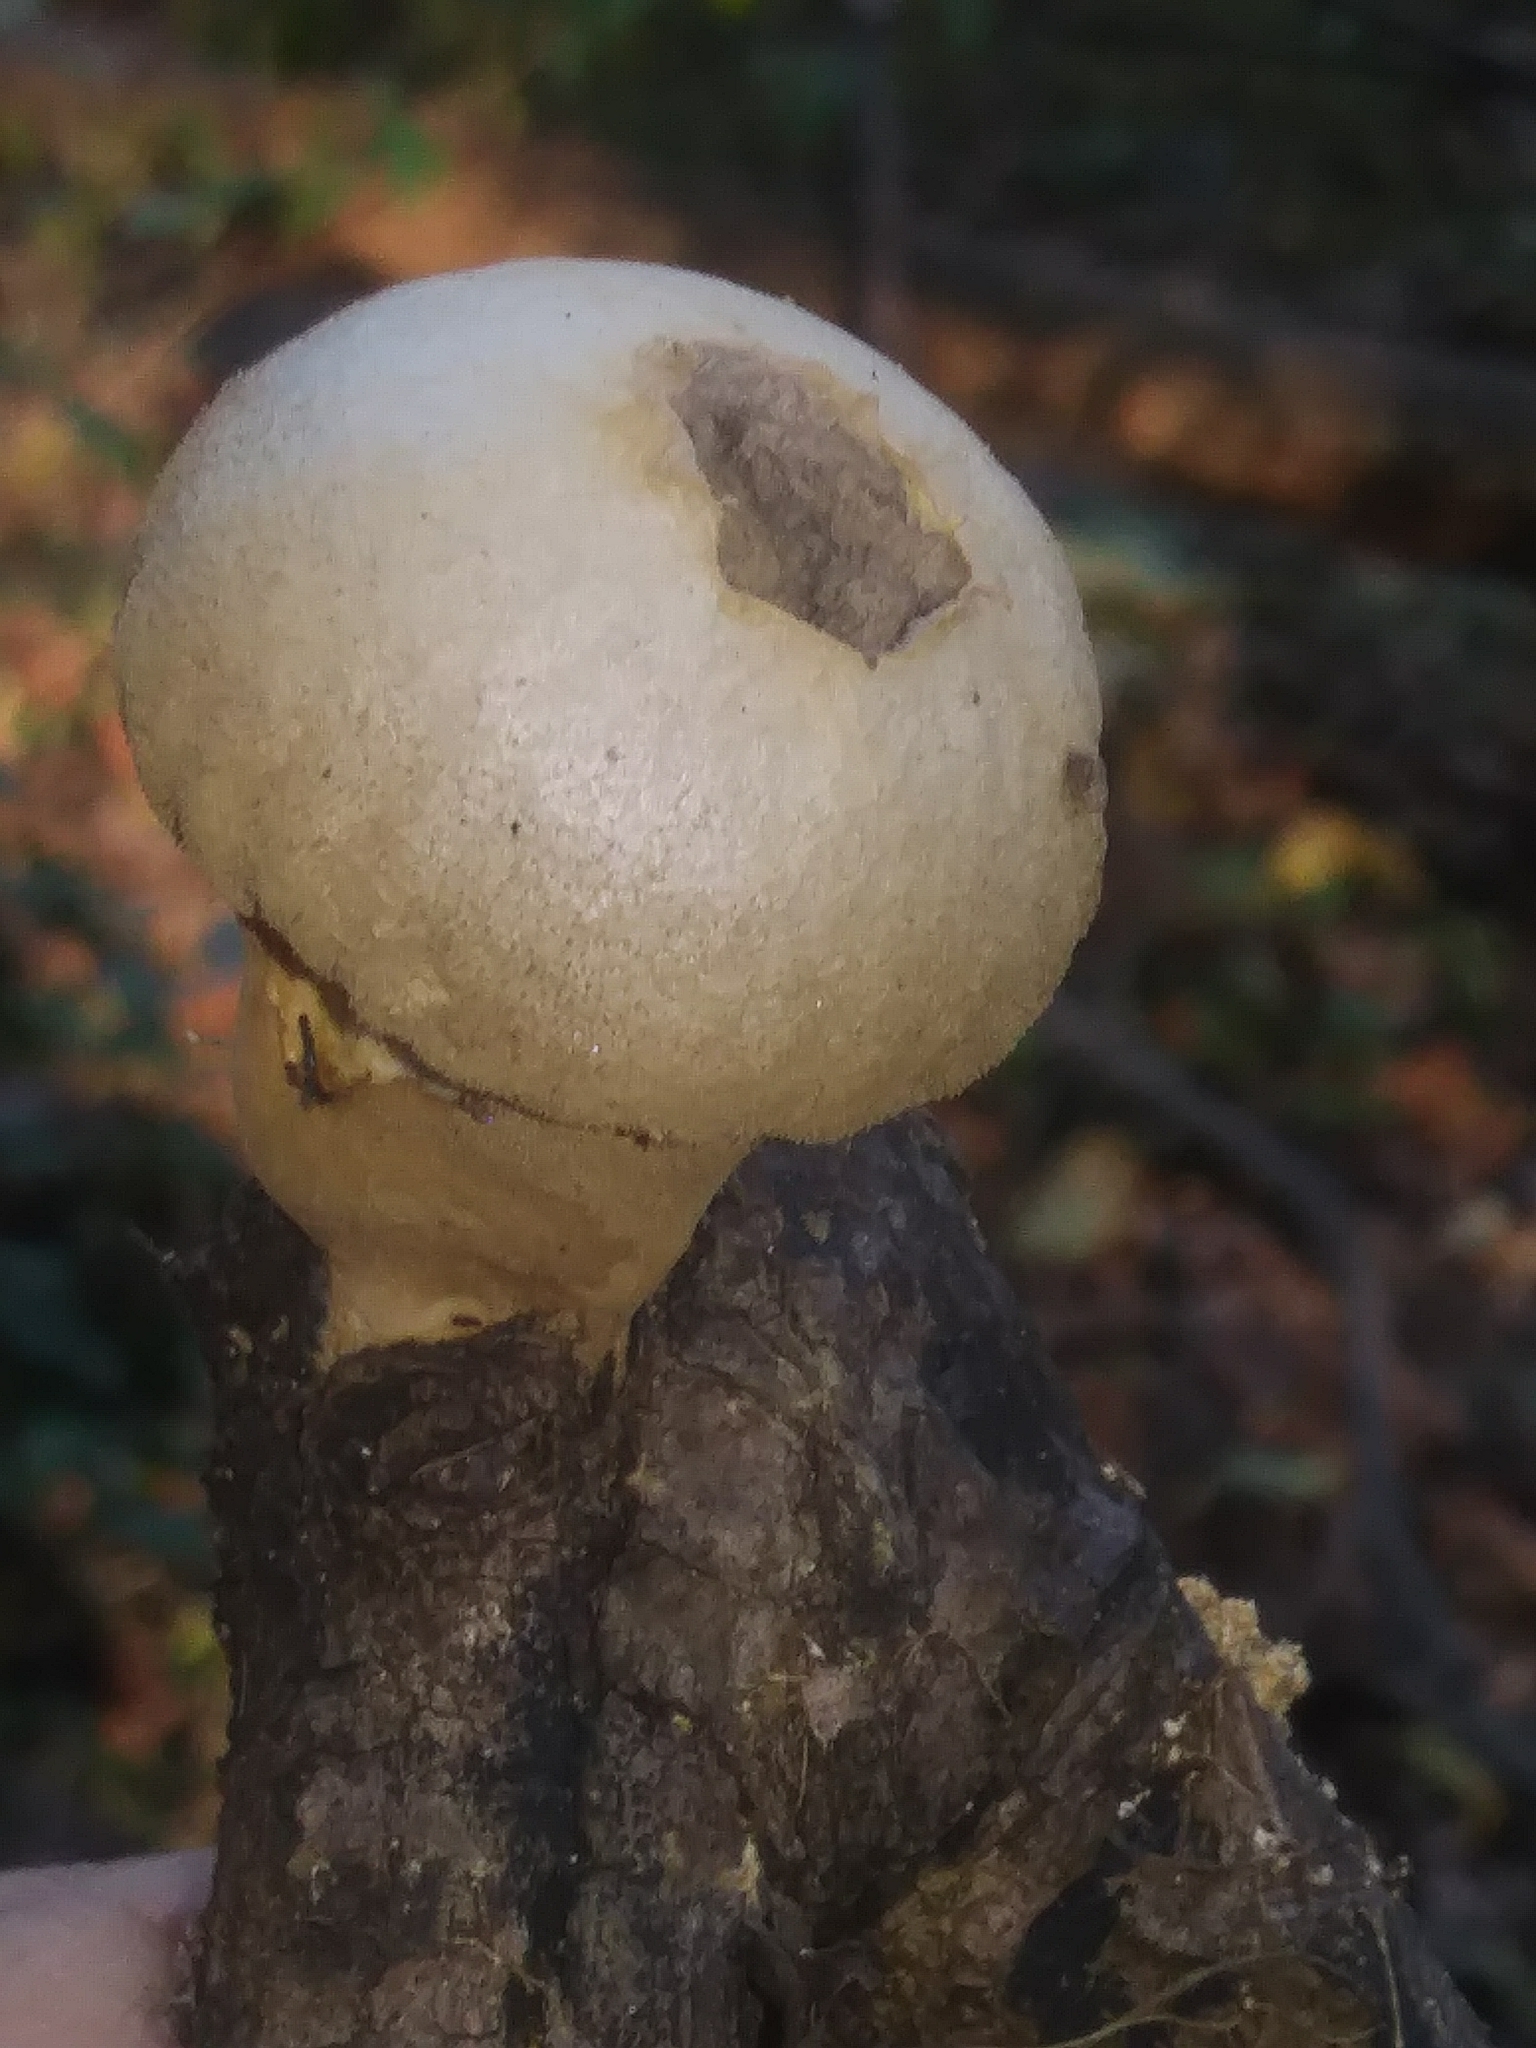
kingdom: Fungi
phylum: Basidiomycota
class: Agaricomycetes
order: Agaricales
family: Lycoperdaceae
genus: Apioperdon
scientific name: Apioperdon pyriforme
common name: Pear-shaped puffball
